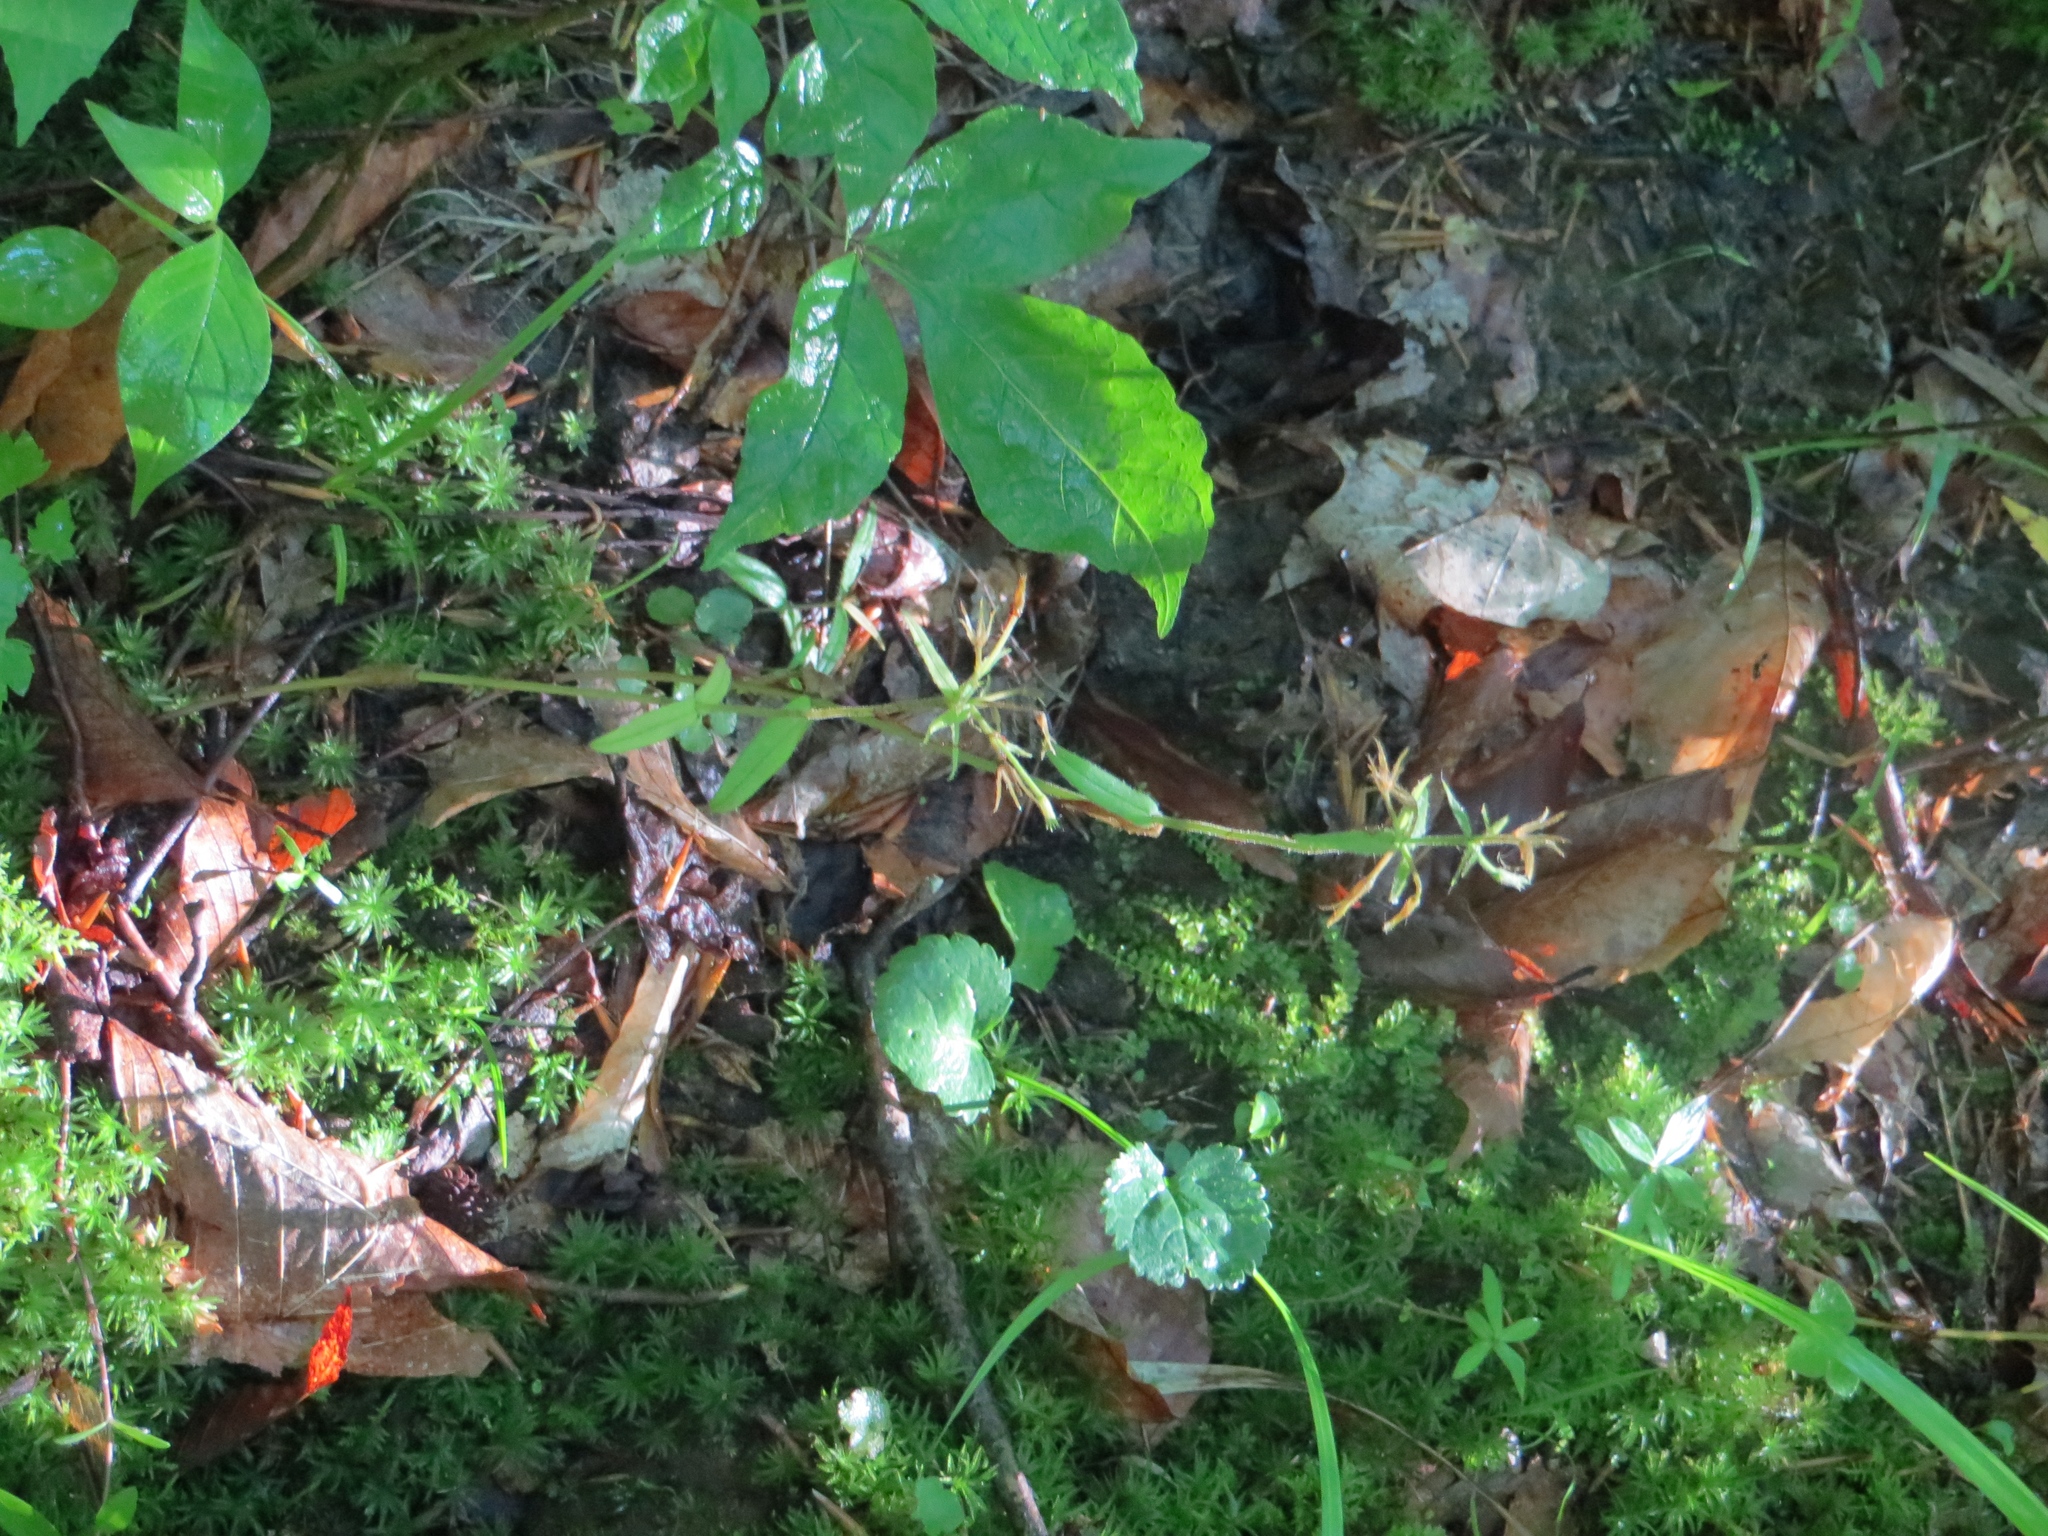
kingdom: Plantae
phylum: Tracheophyta
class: Magnoliopsida
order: Ericales
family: Polemoniaceae
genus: Phlox
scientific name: Phlox divaricata
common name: Blue phlox
